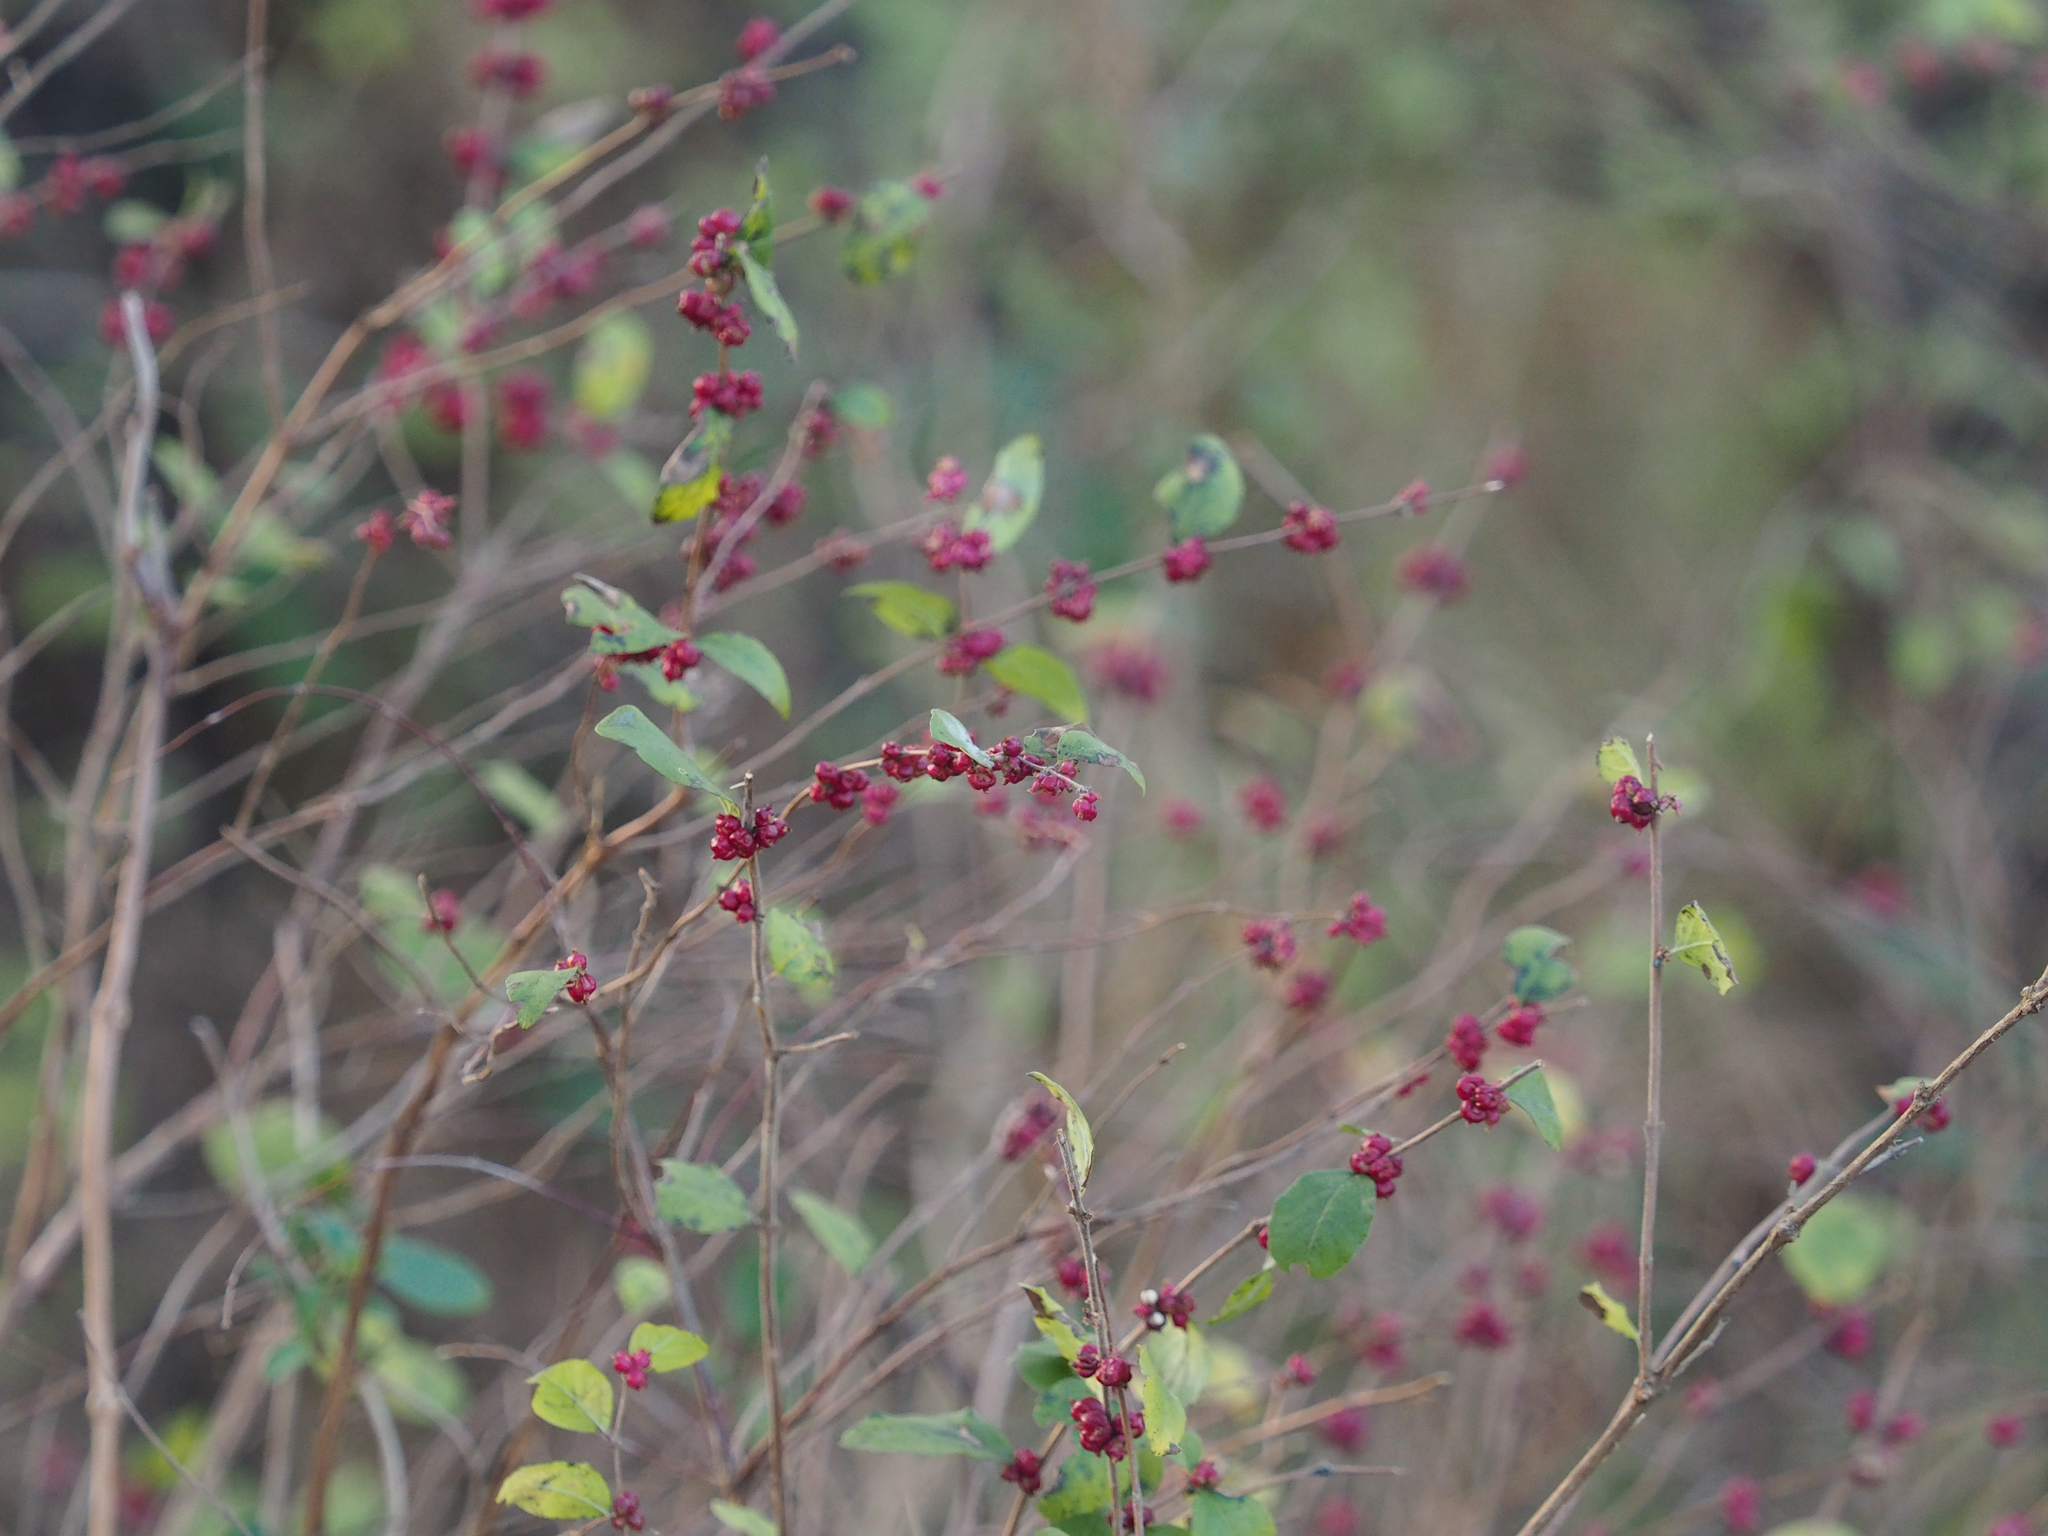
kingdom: Plantae
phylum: Tracheophyta
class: Magnoliopsida
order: Dipsacales
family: Caprifoliaceae
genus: Symphoricarpos
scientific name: Symphoricarpos orbiculatus
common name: Coralberry
